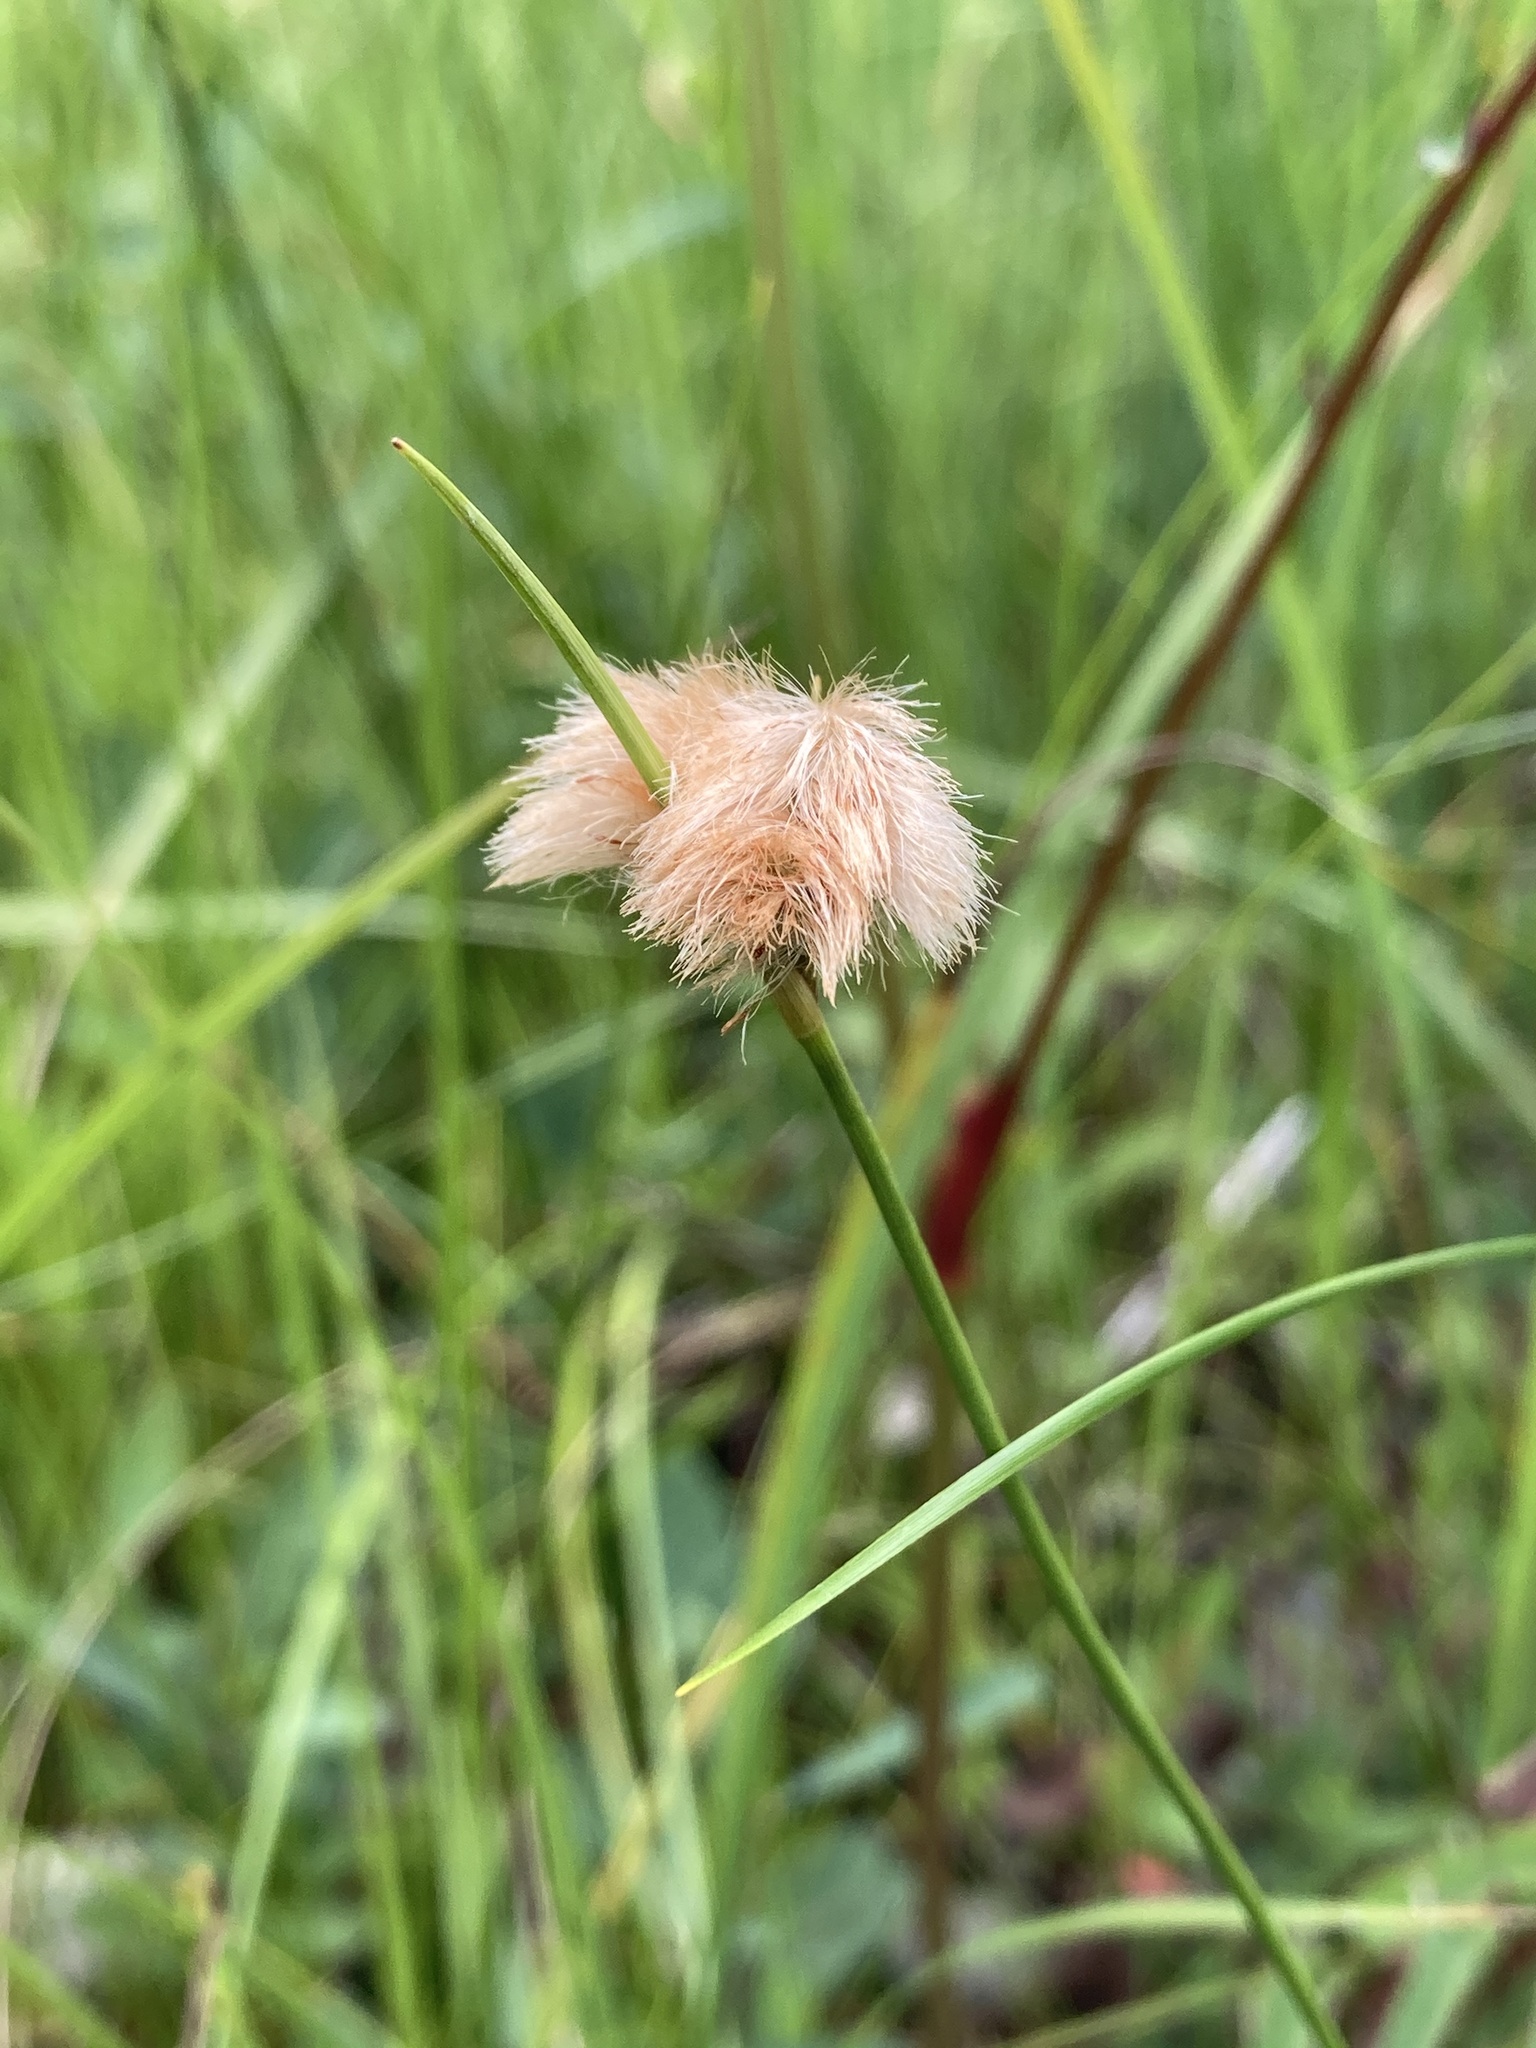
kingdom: Plantae
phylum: Tracheophyta
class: Liliopsida
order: Poales
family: Cyperaceae
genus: Eriophorum
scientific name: Eriophorum virginicum
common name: Tawny cottongrass
